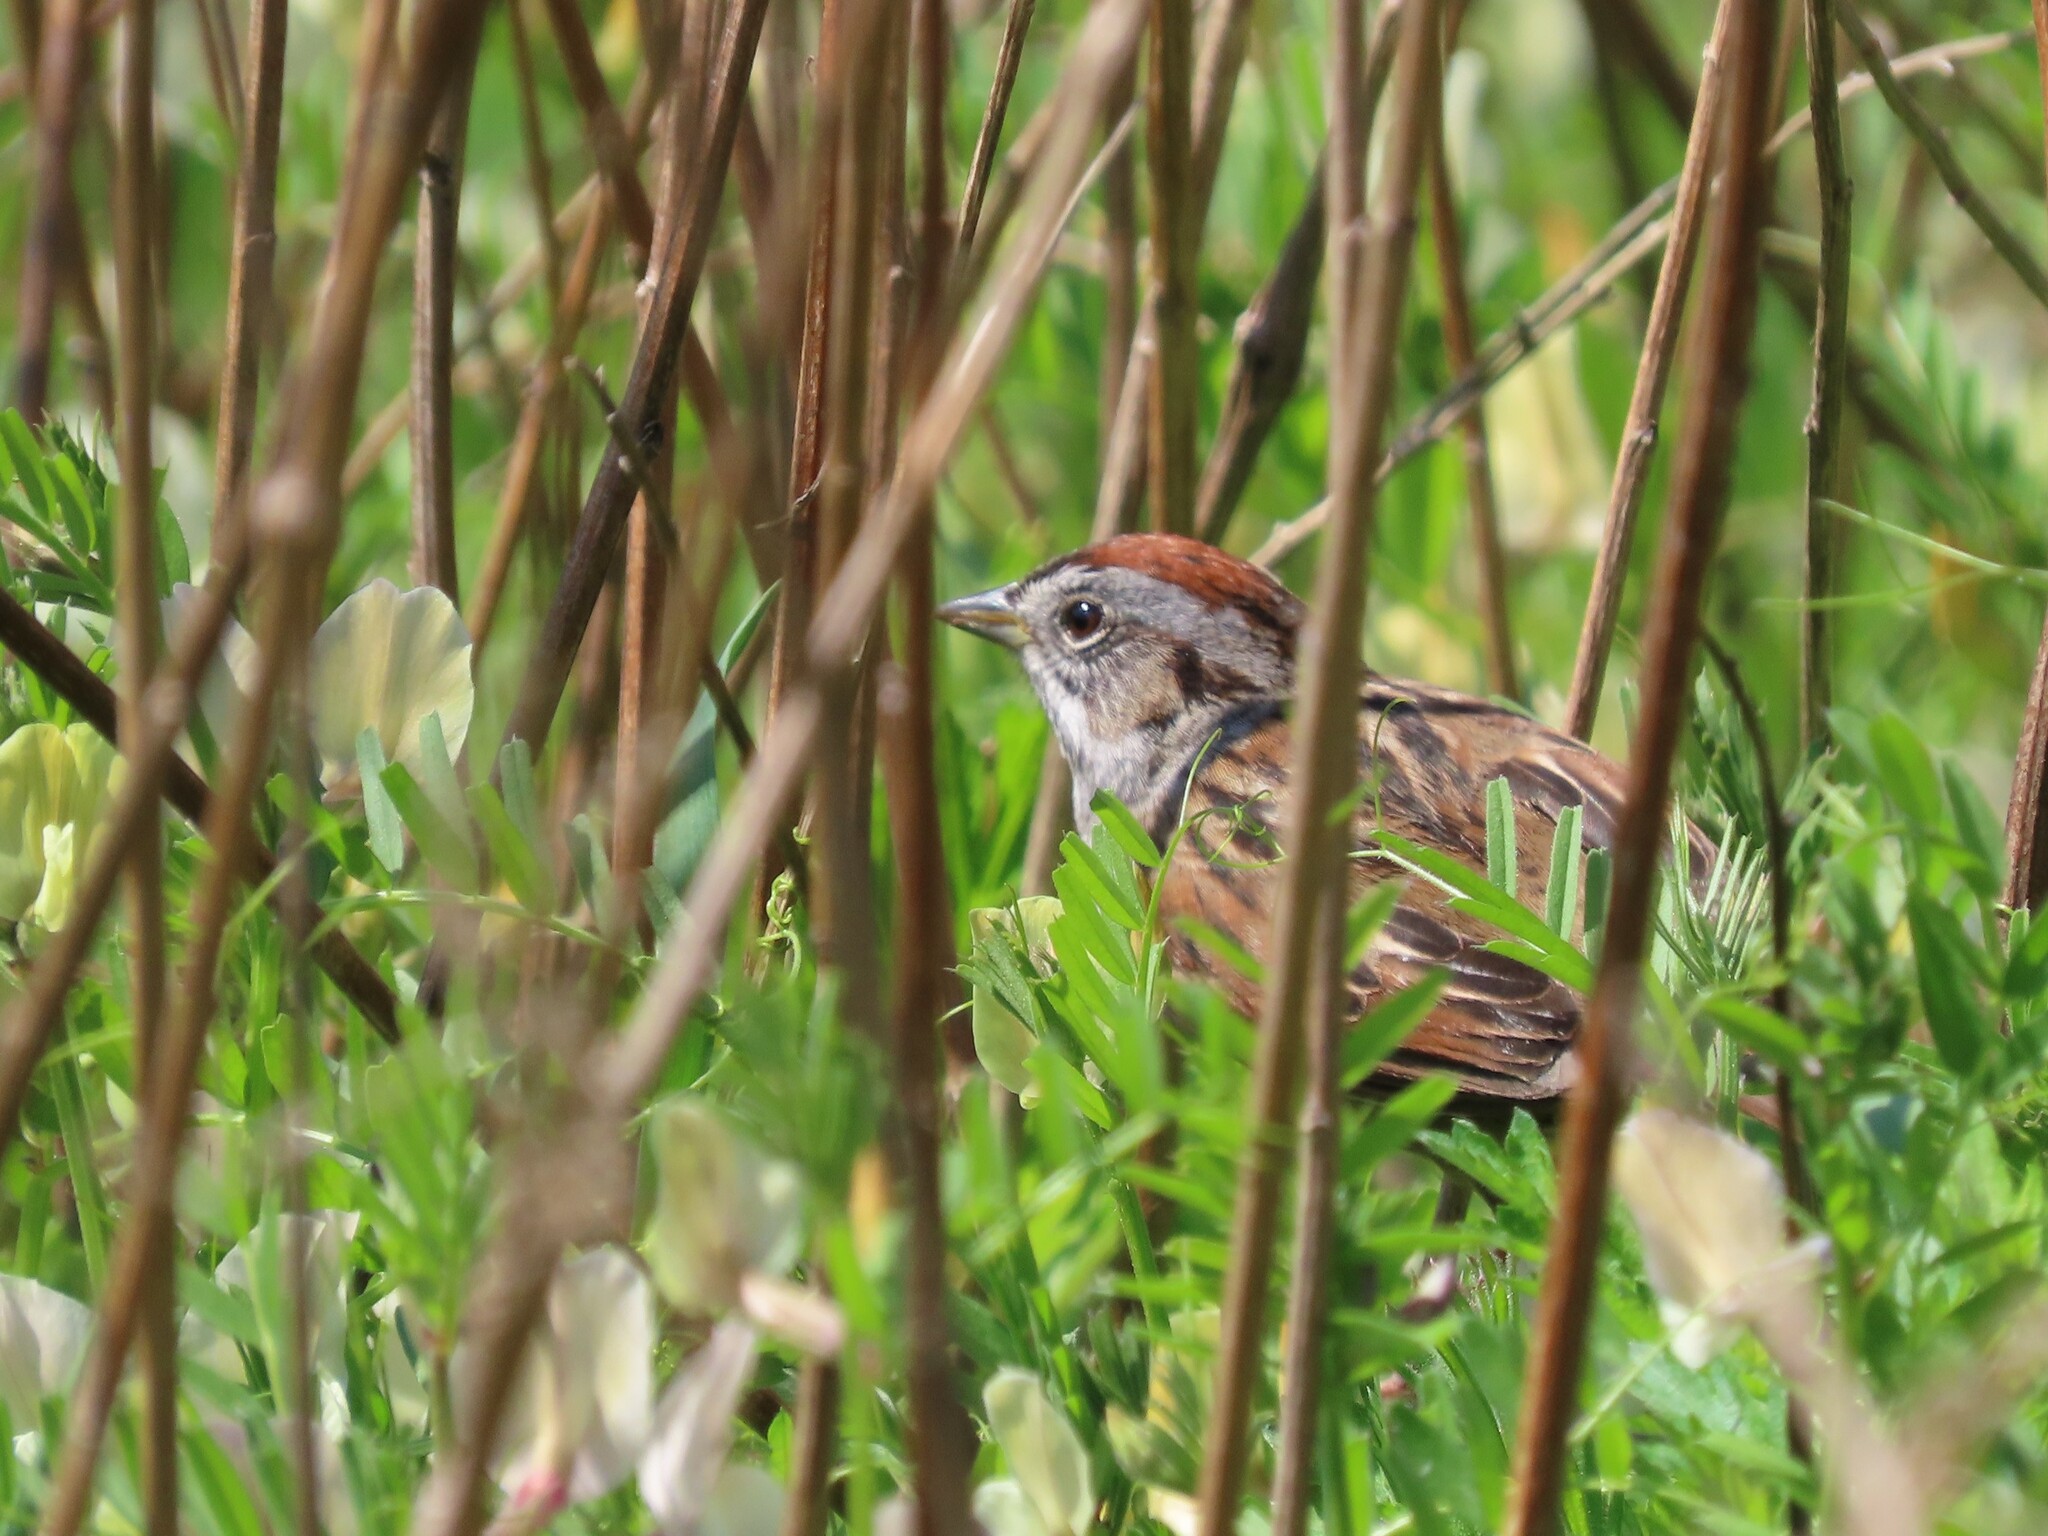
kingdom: Animalia
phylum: Chordata
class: Aves
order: Passeriformes
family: Passerellidae
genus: Melospiza
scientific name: Melospiza georgiana
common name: Swamp sparrow
